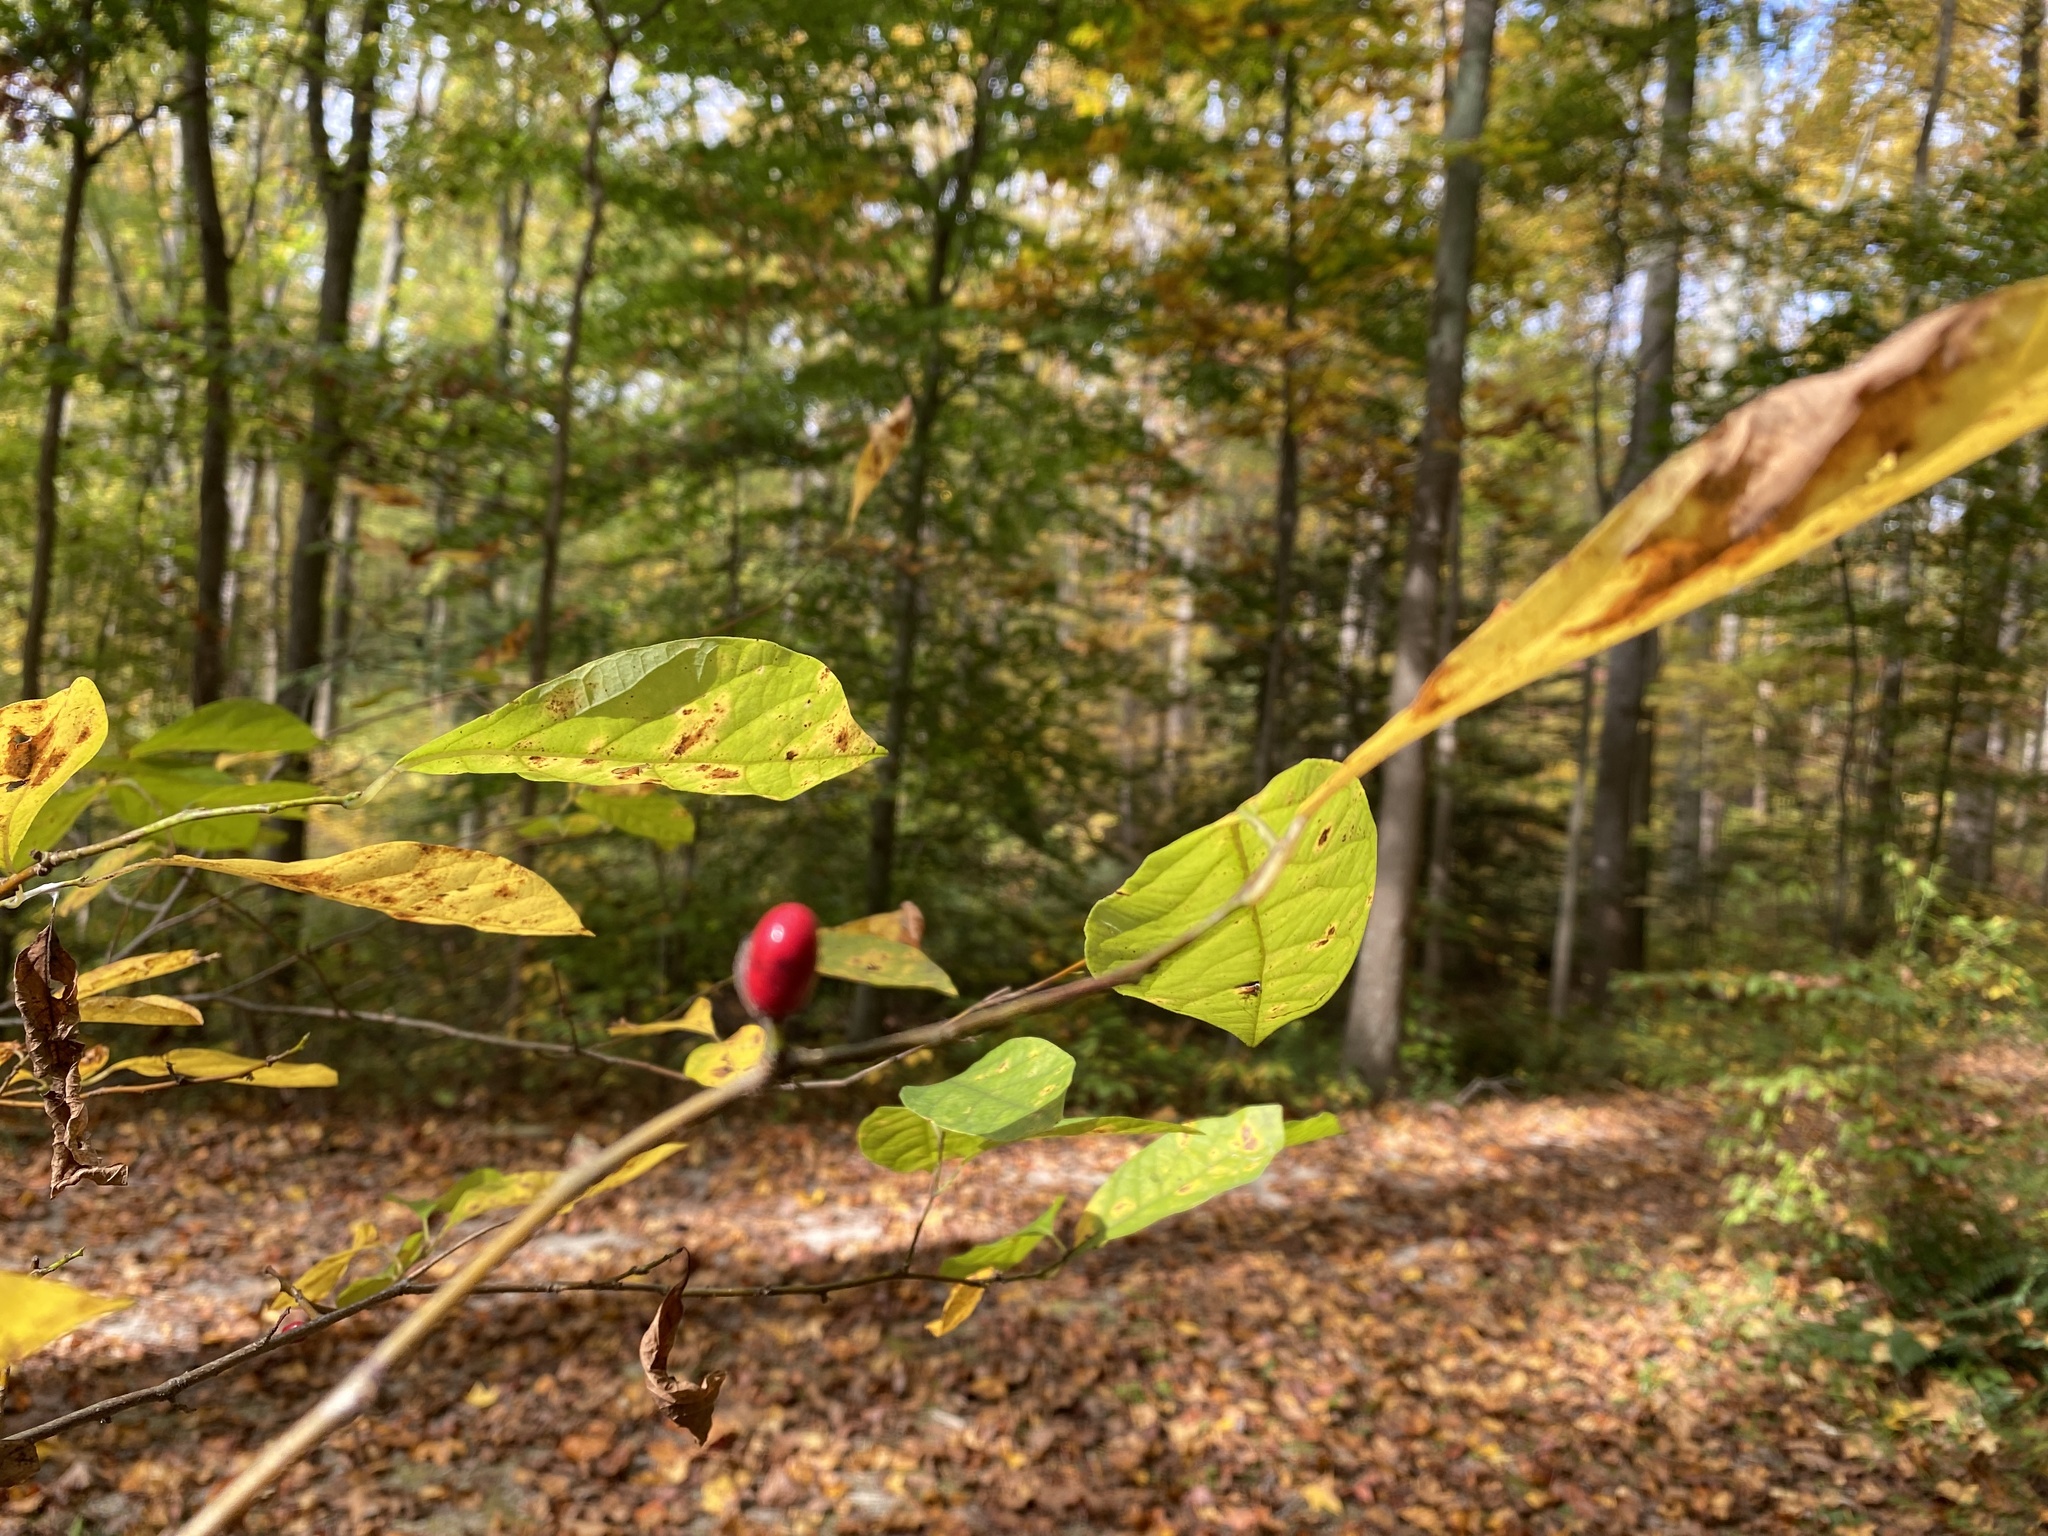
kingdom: Plantae
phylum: Tracheophyta
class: Magnoliopsida
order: Laurales
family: Lauraceae
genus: Lindera
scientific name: Lindera benzoin
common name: Spicebush
